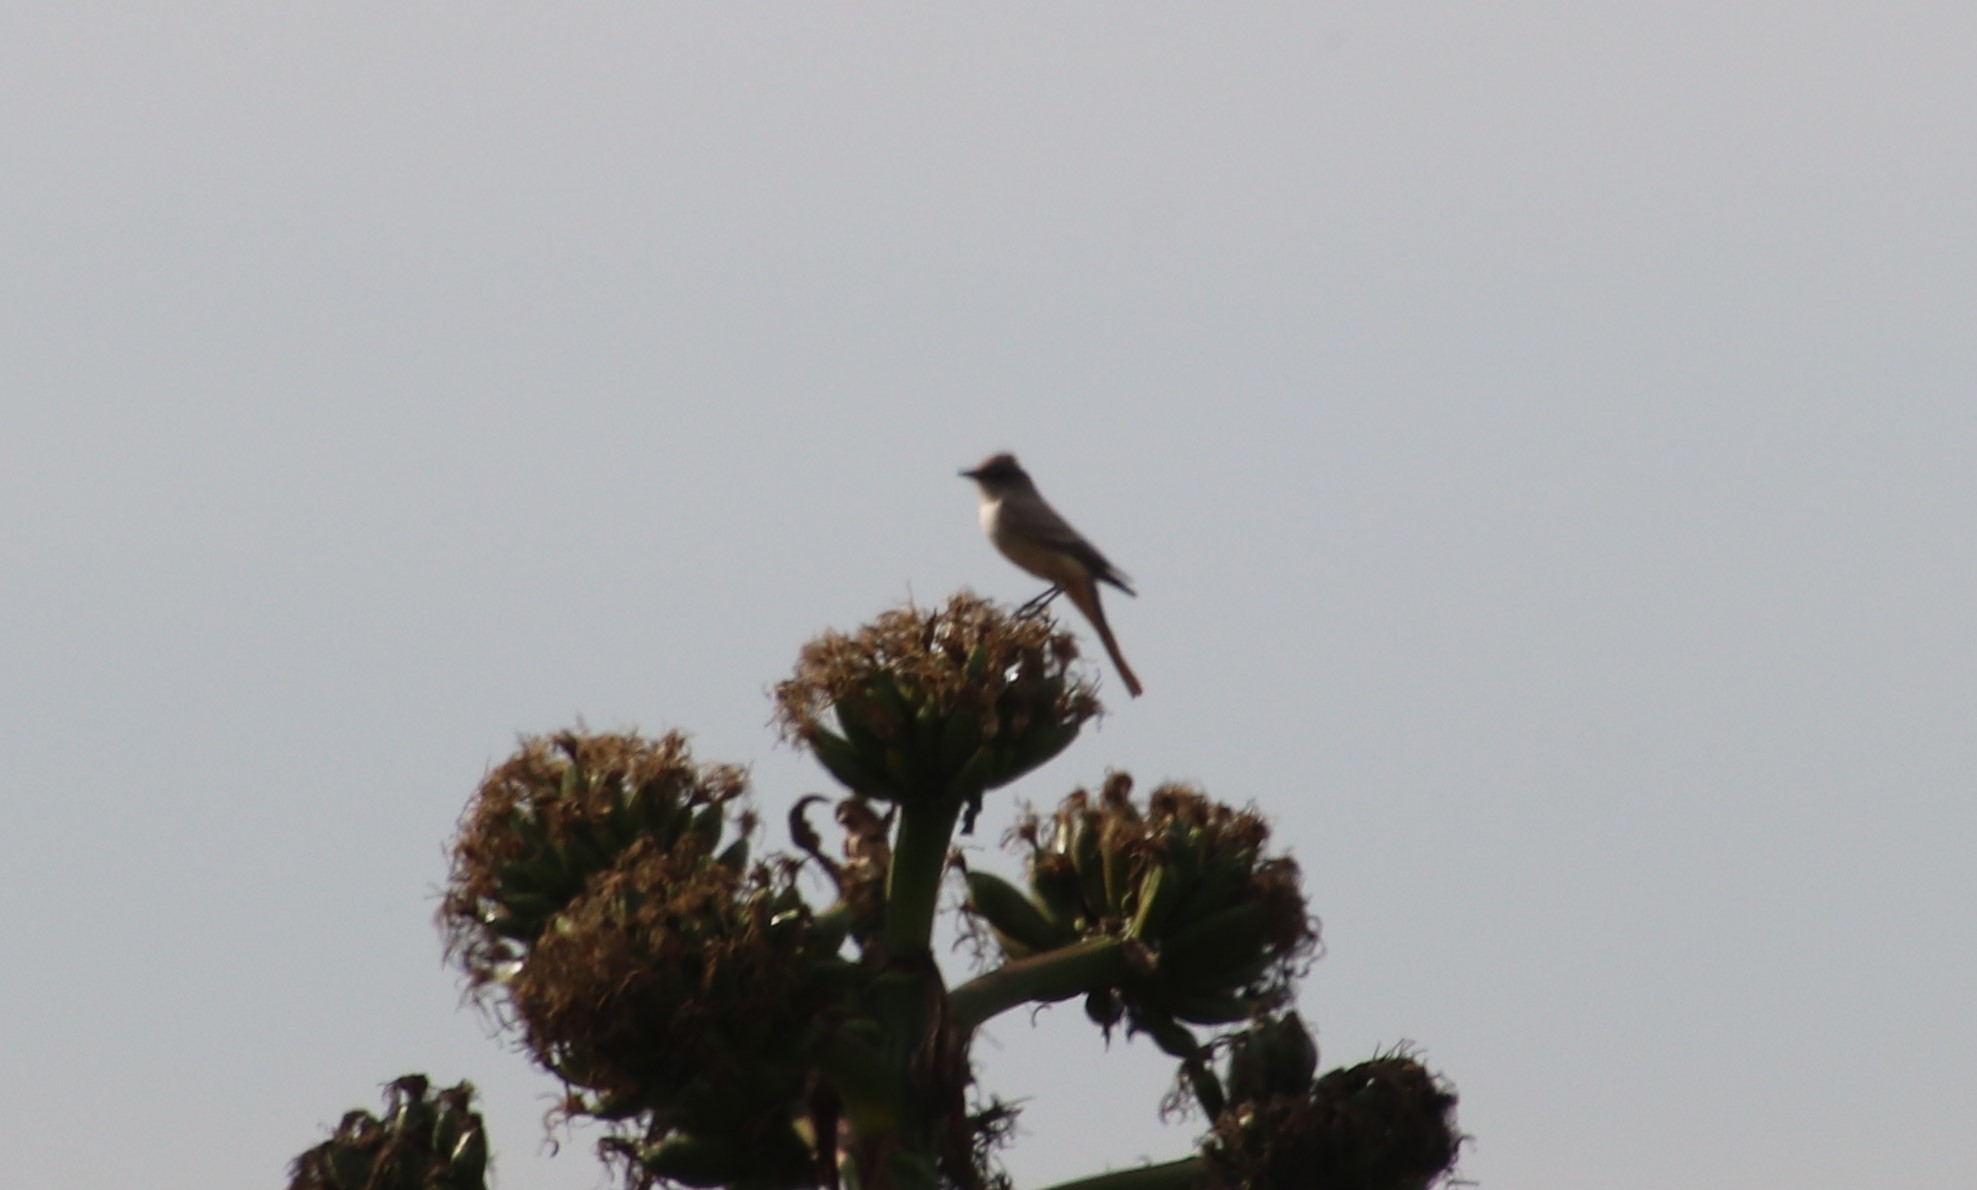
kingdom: Animalia
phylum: Chordata
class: Aves
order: Passeriformes
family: Tyrannidae
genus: Sayornis
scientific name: Sayornis saya
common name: Say's phoebe
